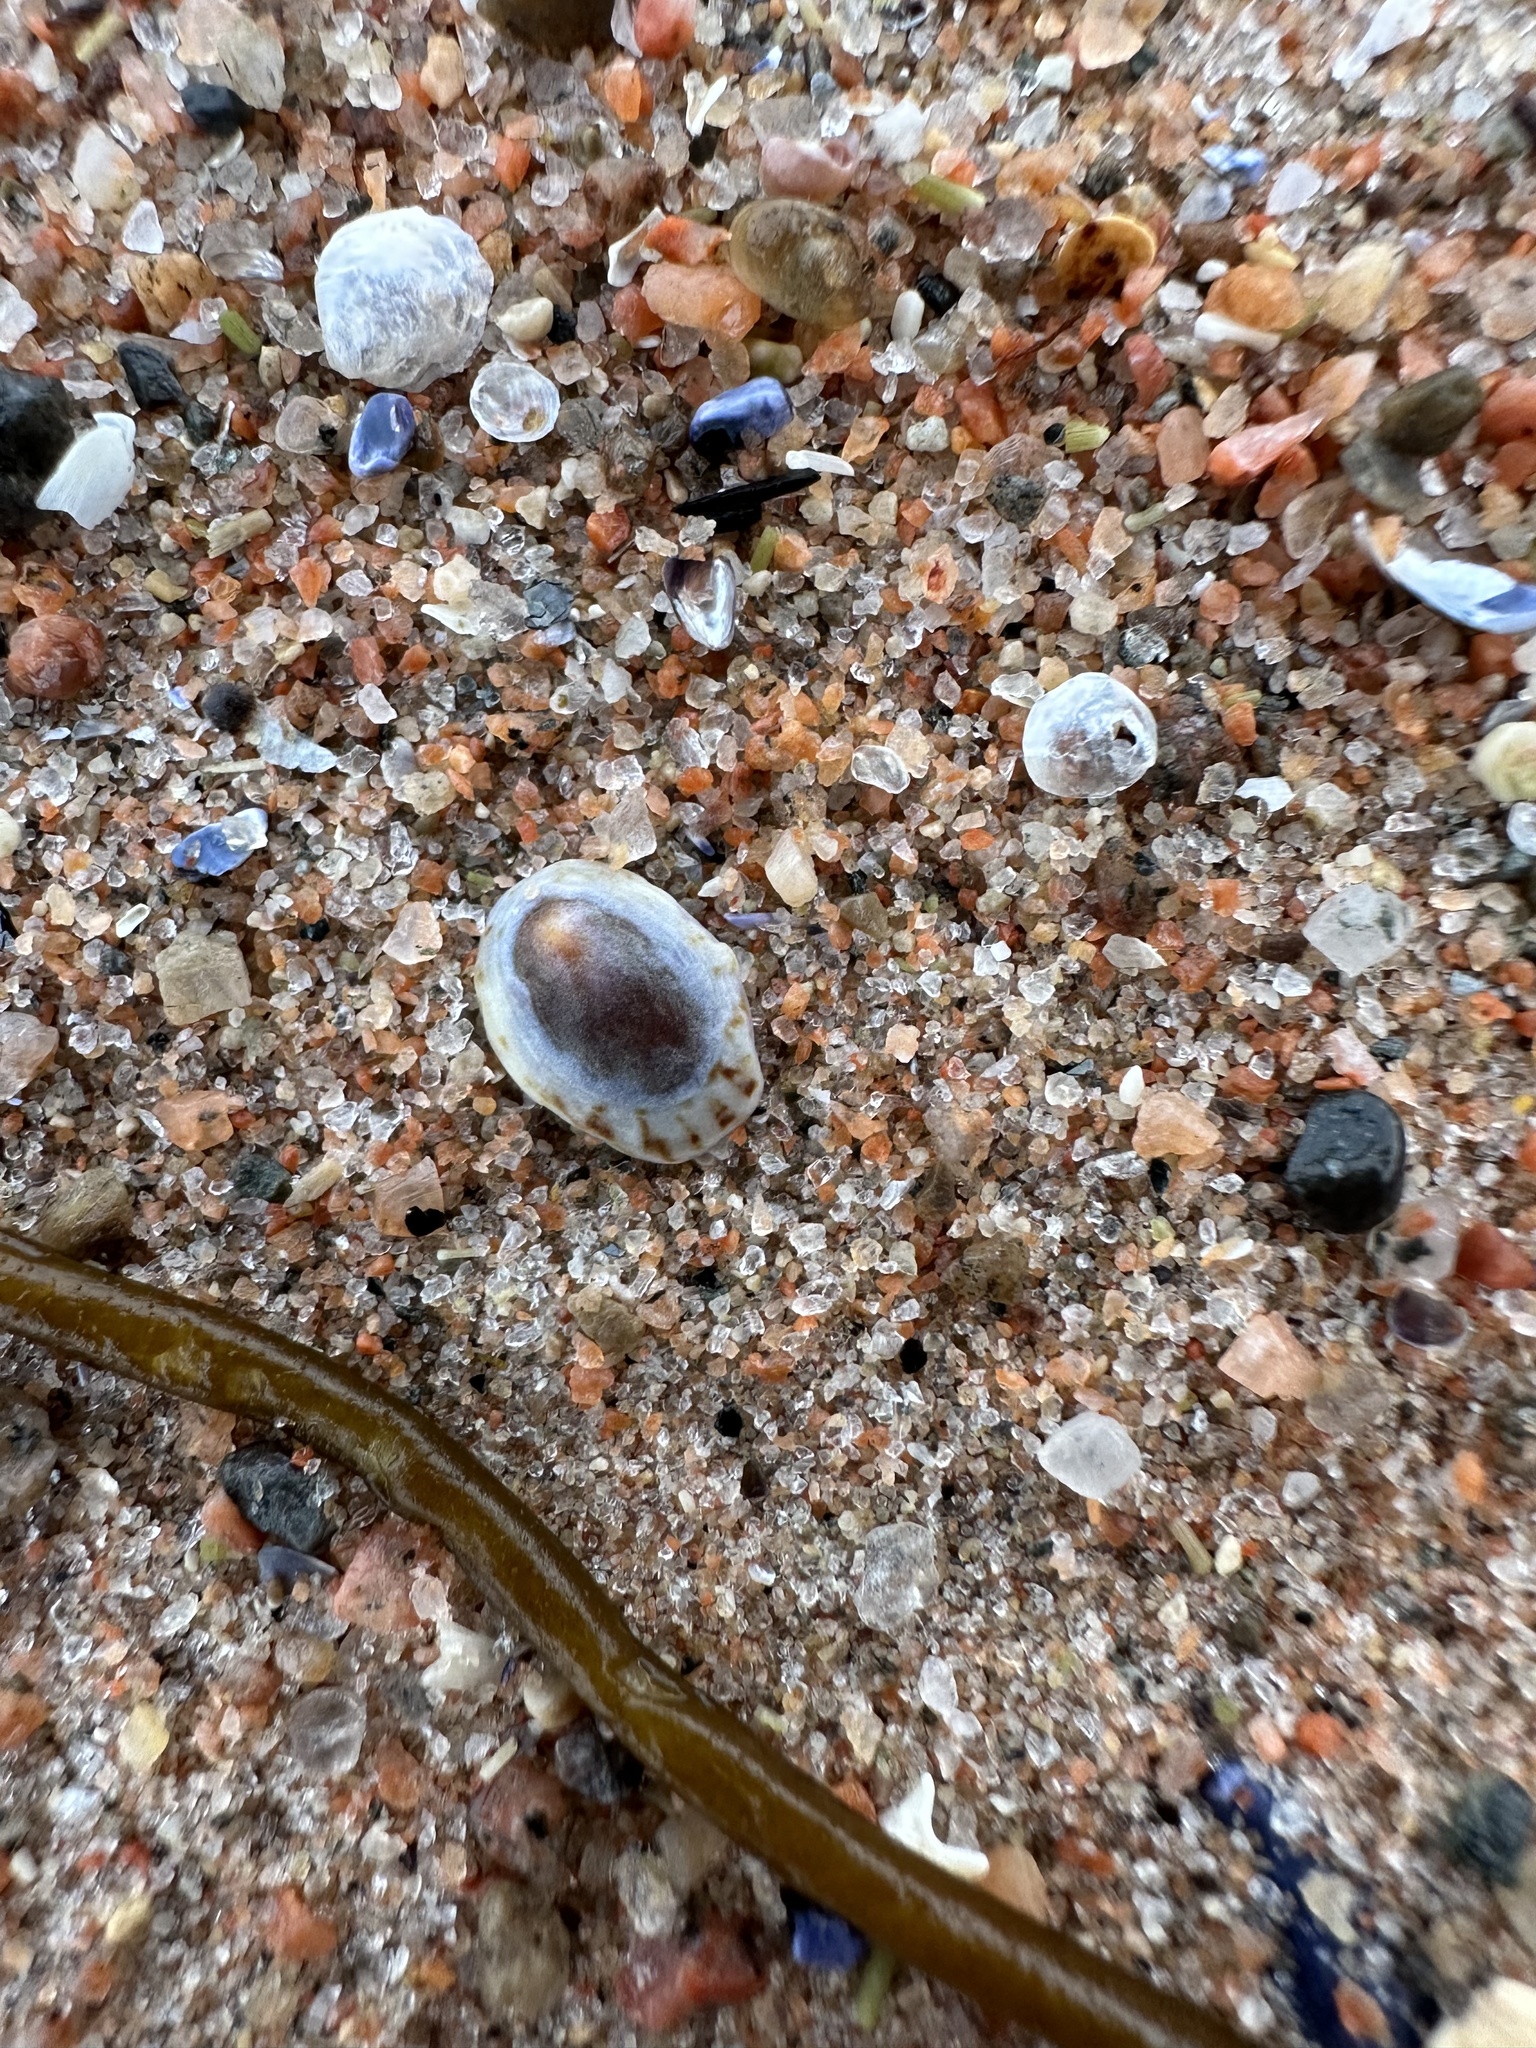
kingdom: Animalia
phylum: Mollusca
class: Gastropoda
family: Lottiidae
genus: Testudinalia
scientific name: Testudinalia testudinalis
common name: Common tortoiseshell limpet
